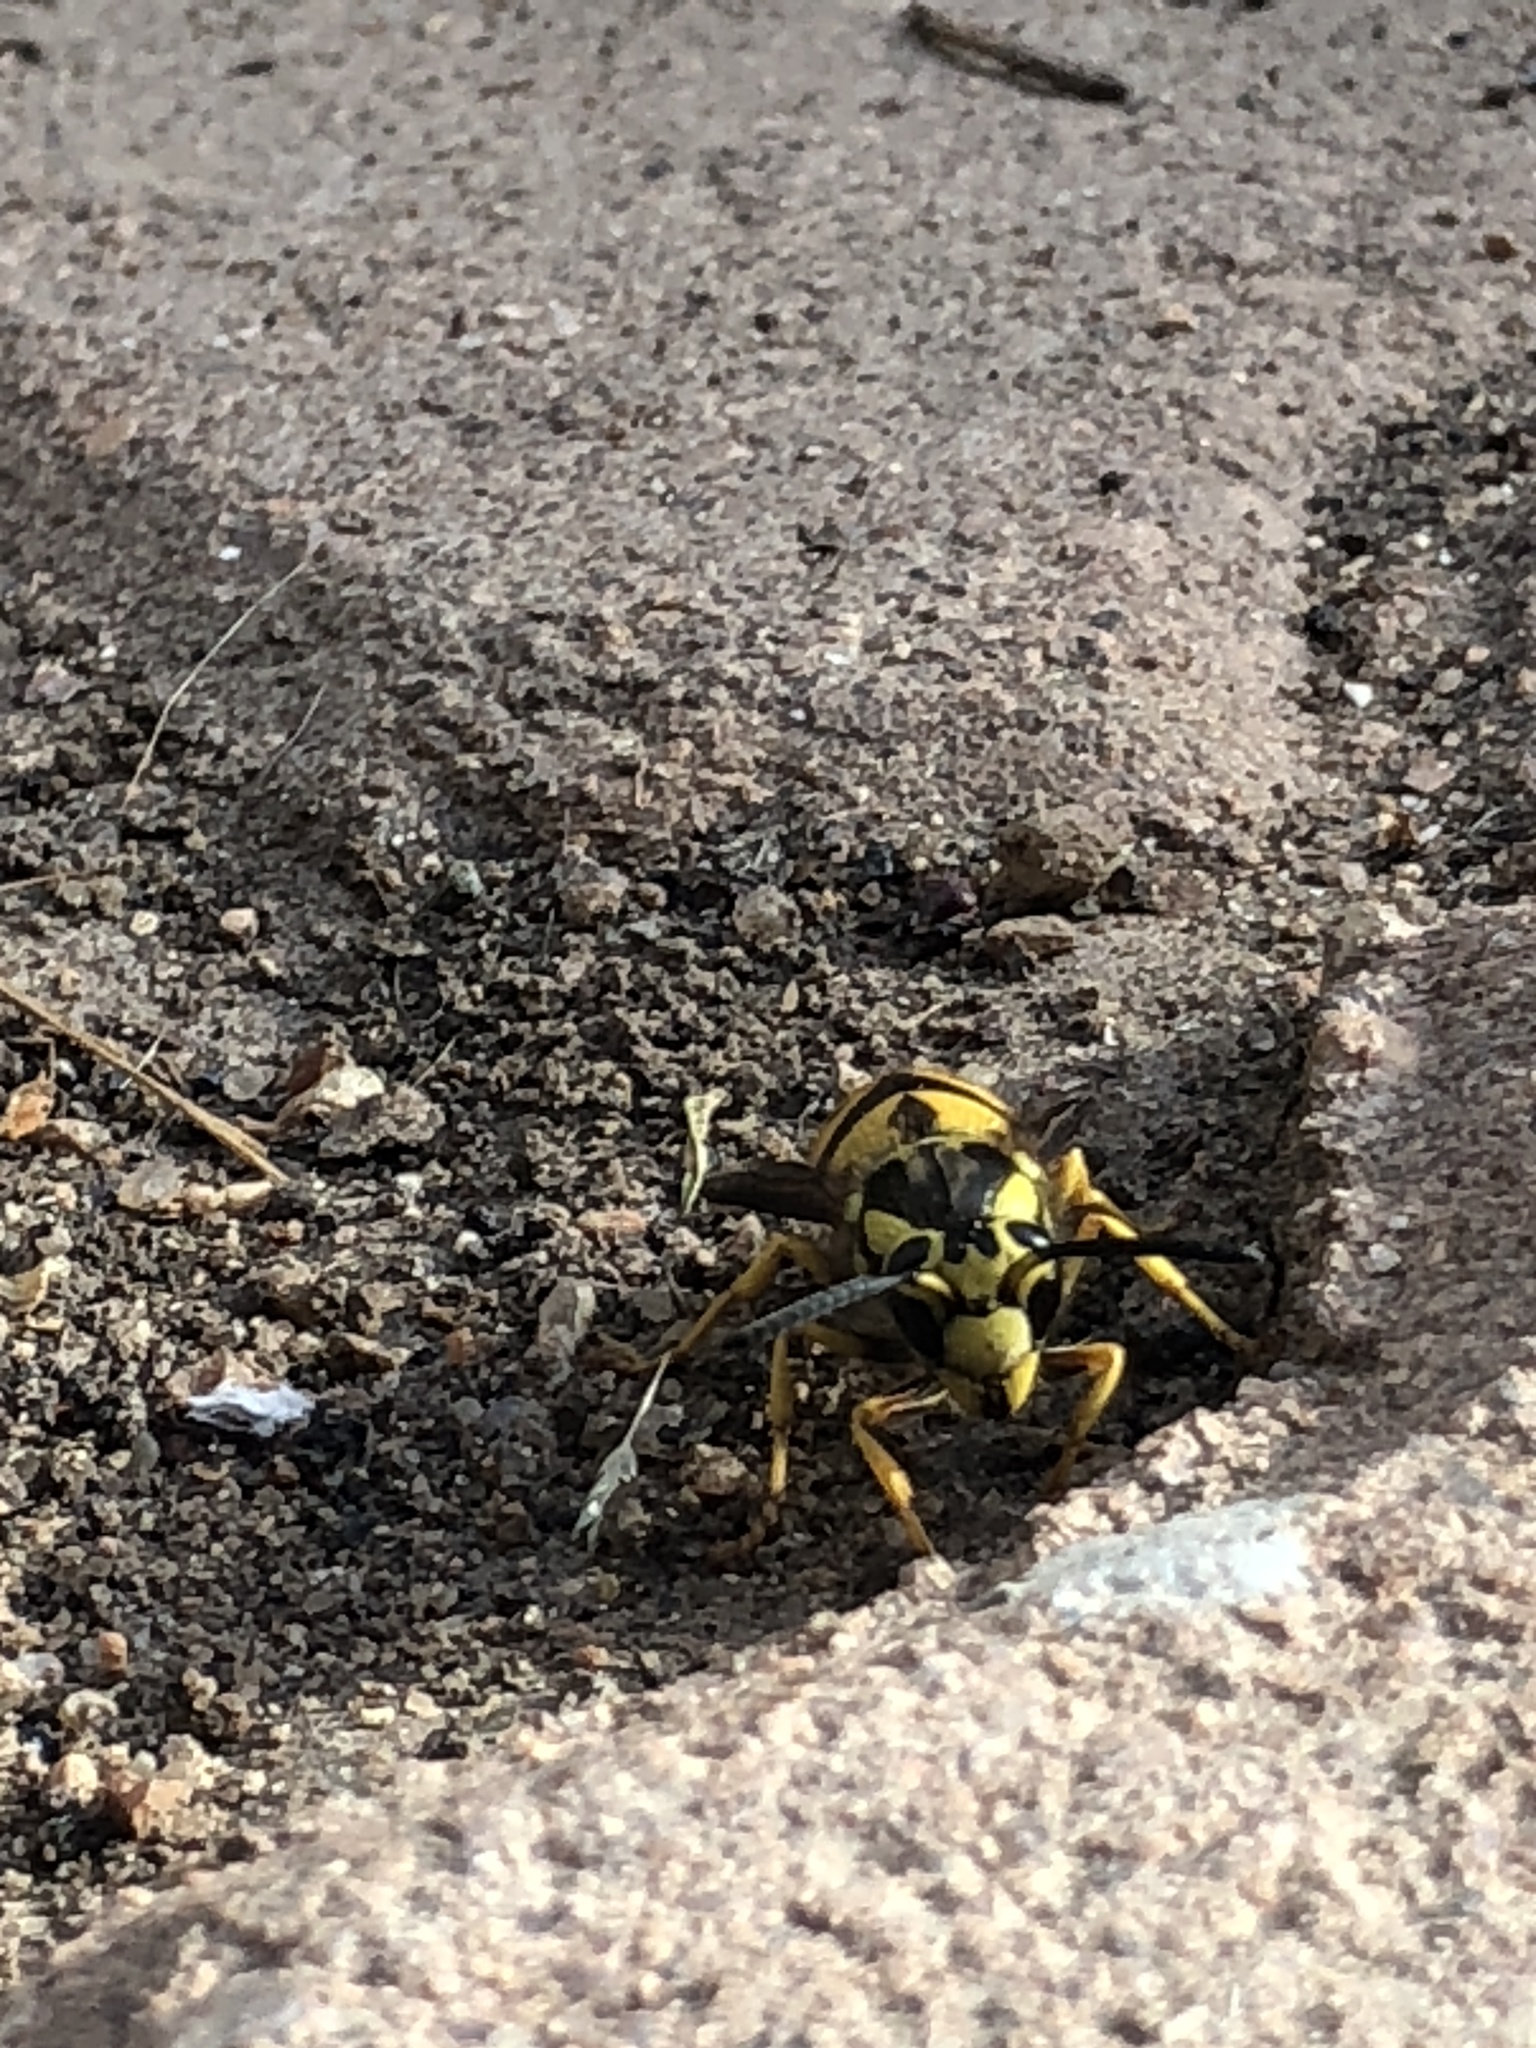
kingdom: Animalia
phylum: Arthropoda
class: Insecta
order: Hymenoptera
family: Vespidae
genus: Vespula
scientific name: Vespula pensylvanica
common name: Western yellowjacket
